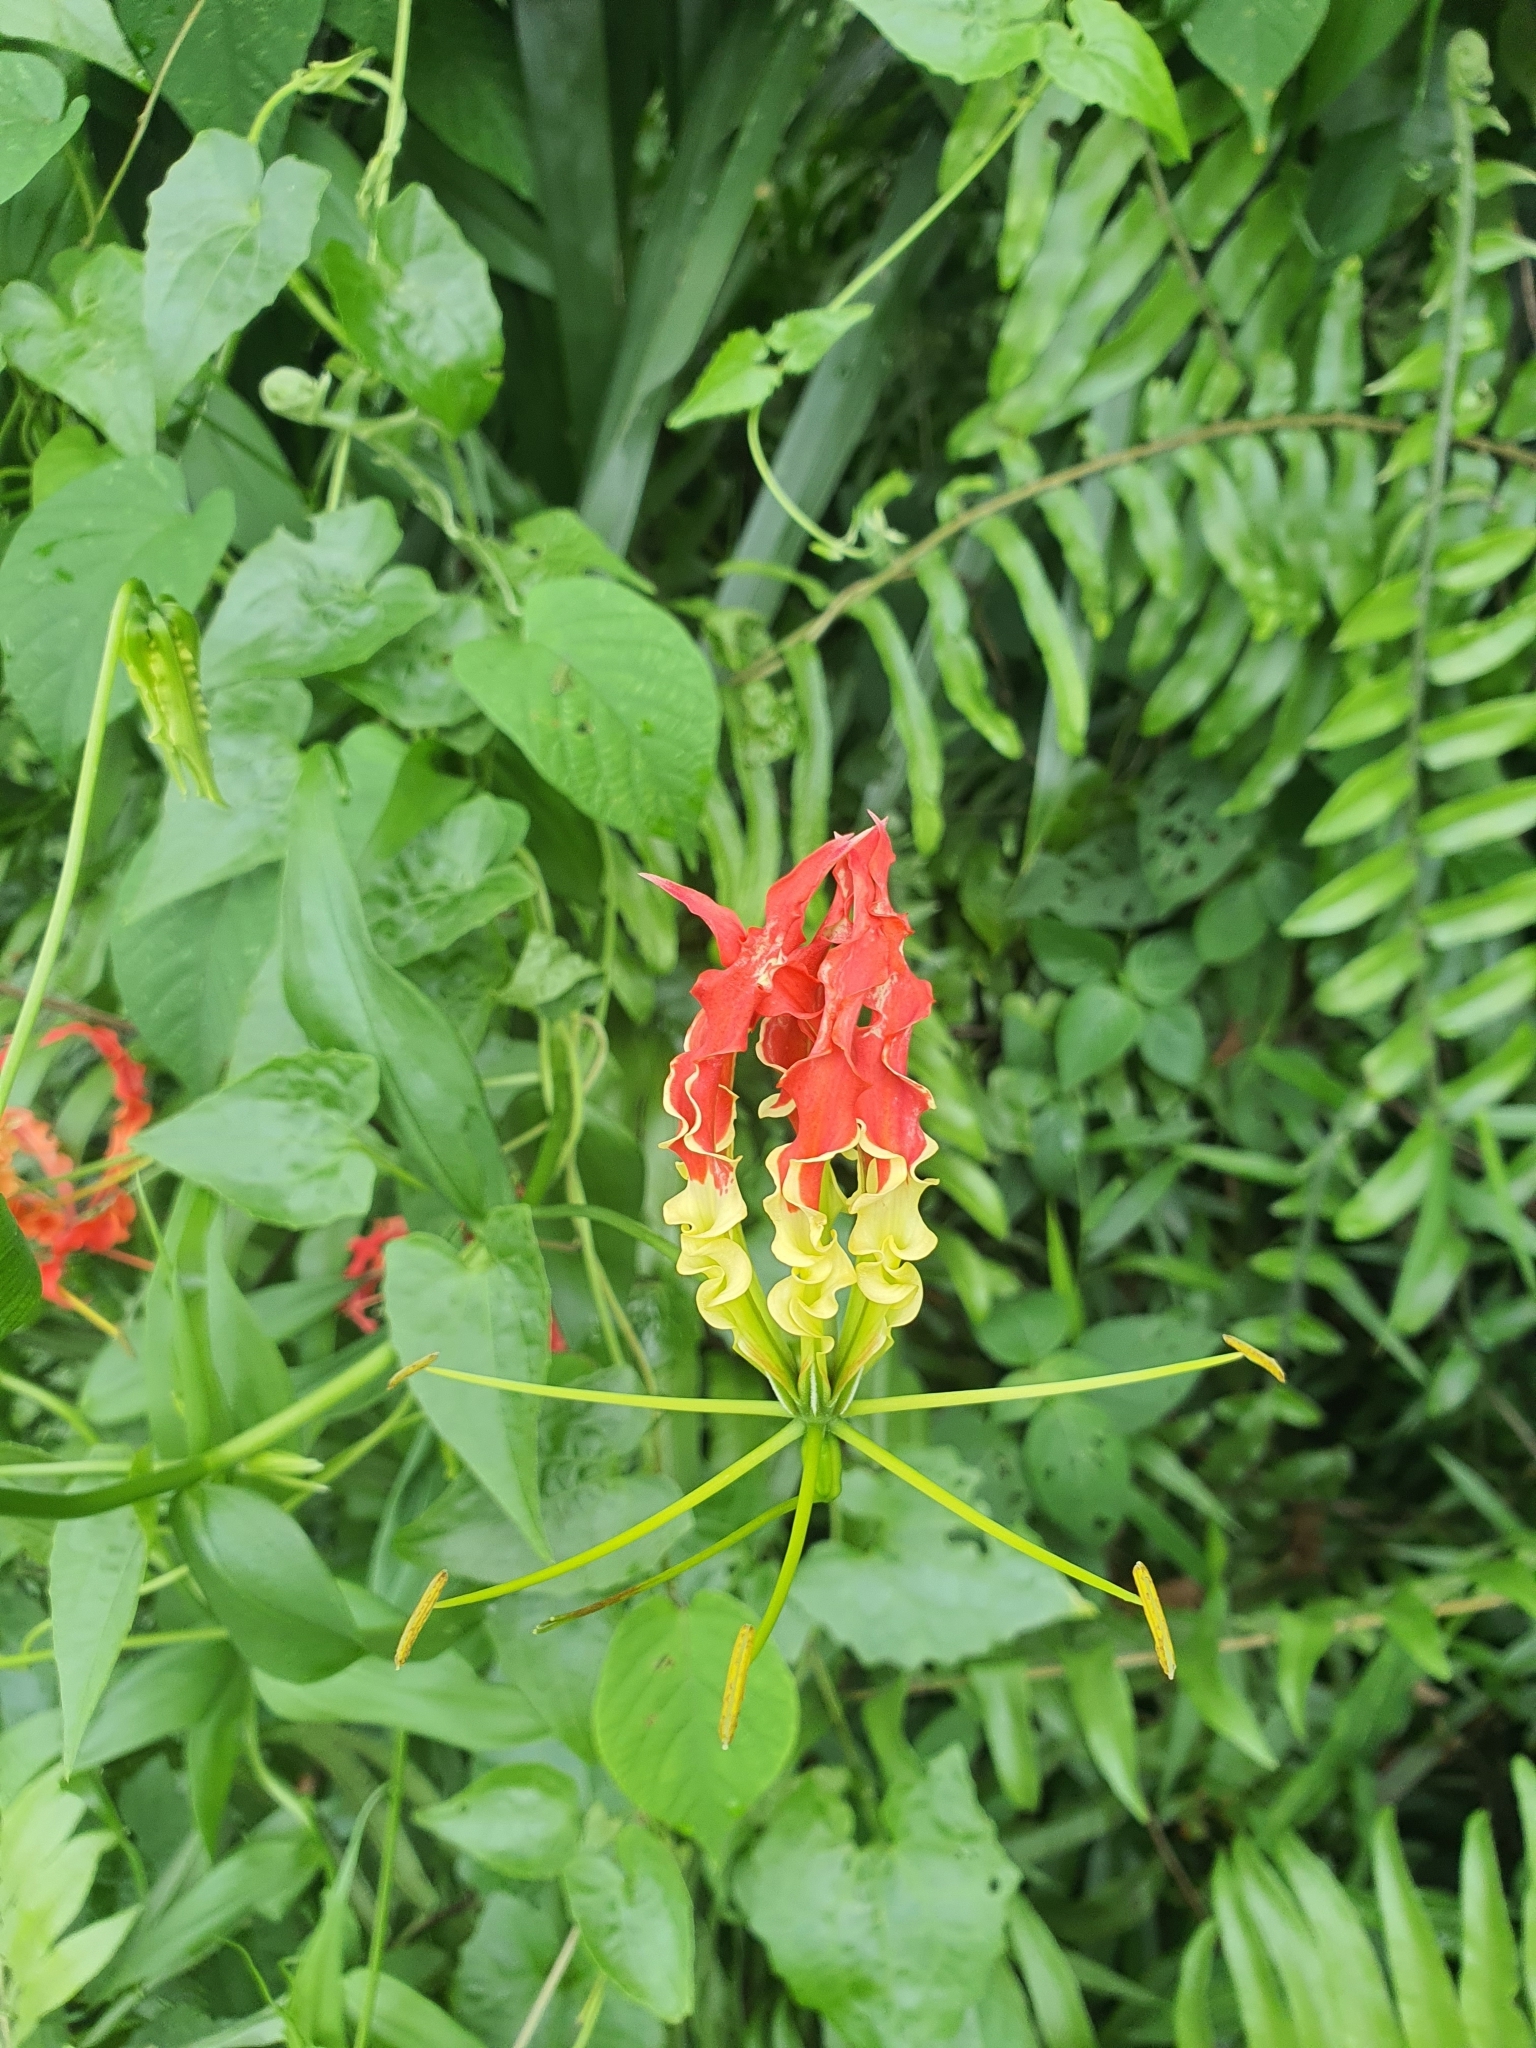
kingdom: Plantae
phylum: Tracheophyta
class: Liliopsida
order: Liliales
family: Colchicaceae
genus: Gloriosa
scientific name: Gloriosa superba
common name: Flame lily
